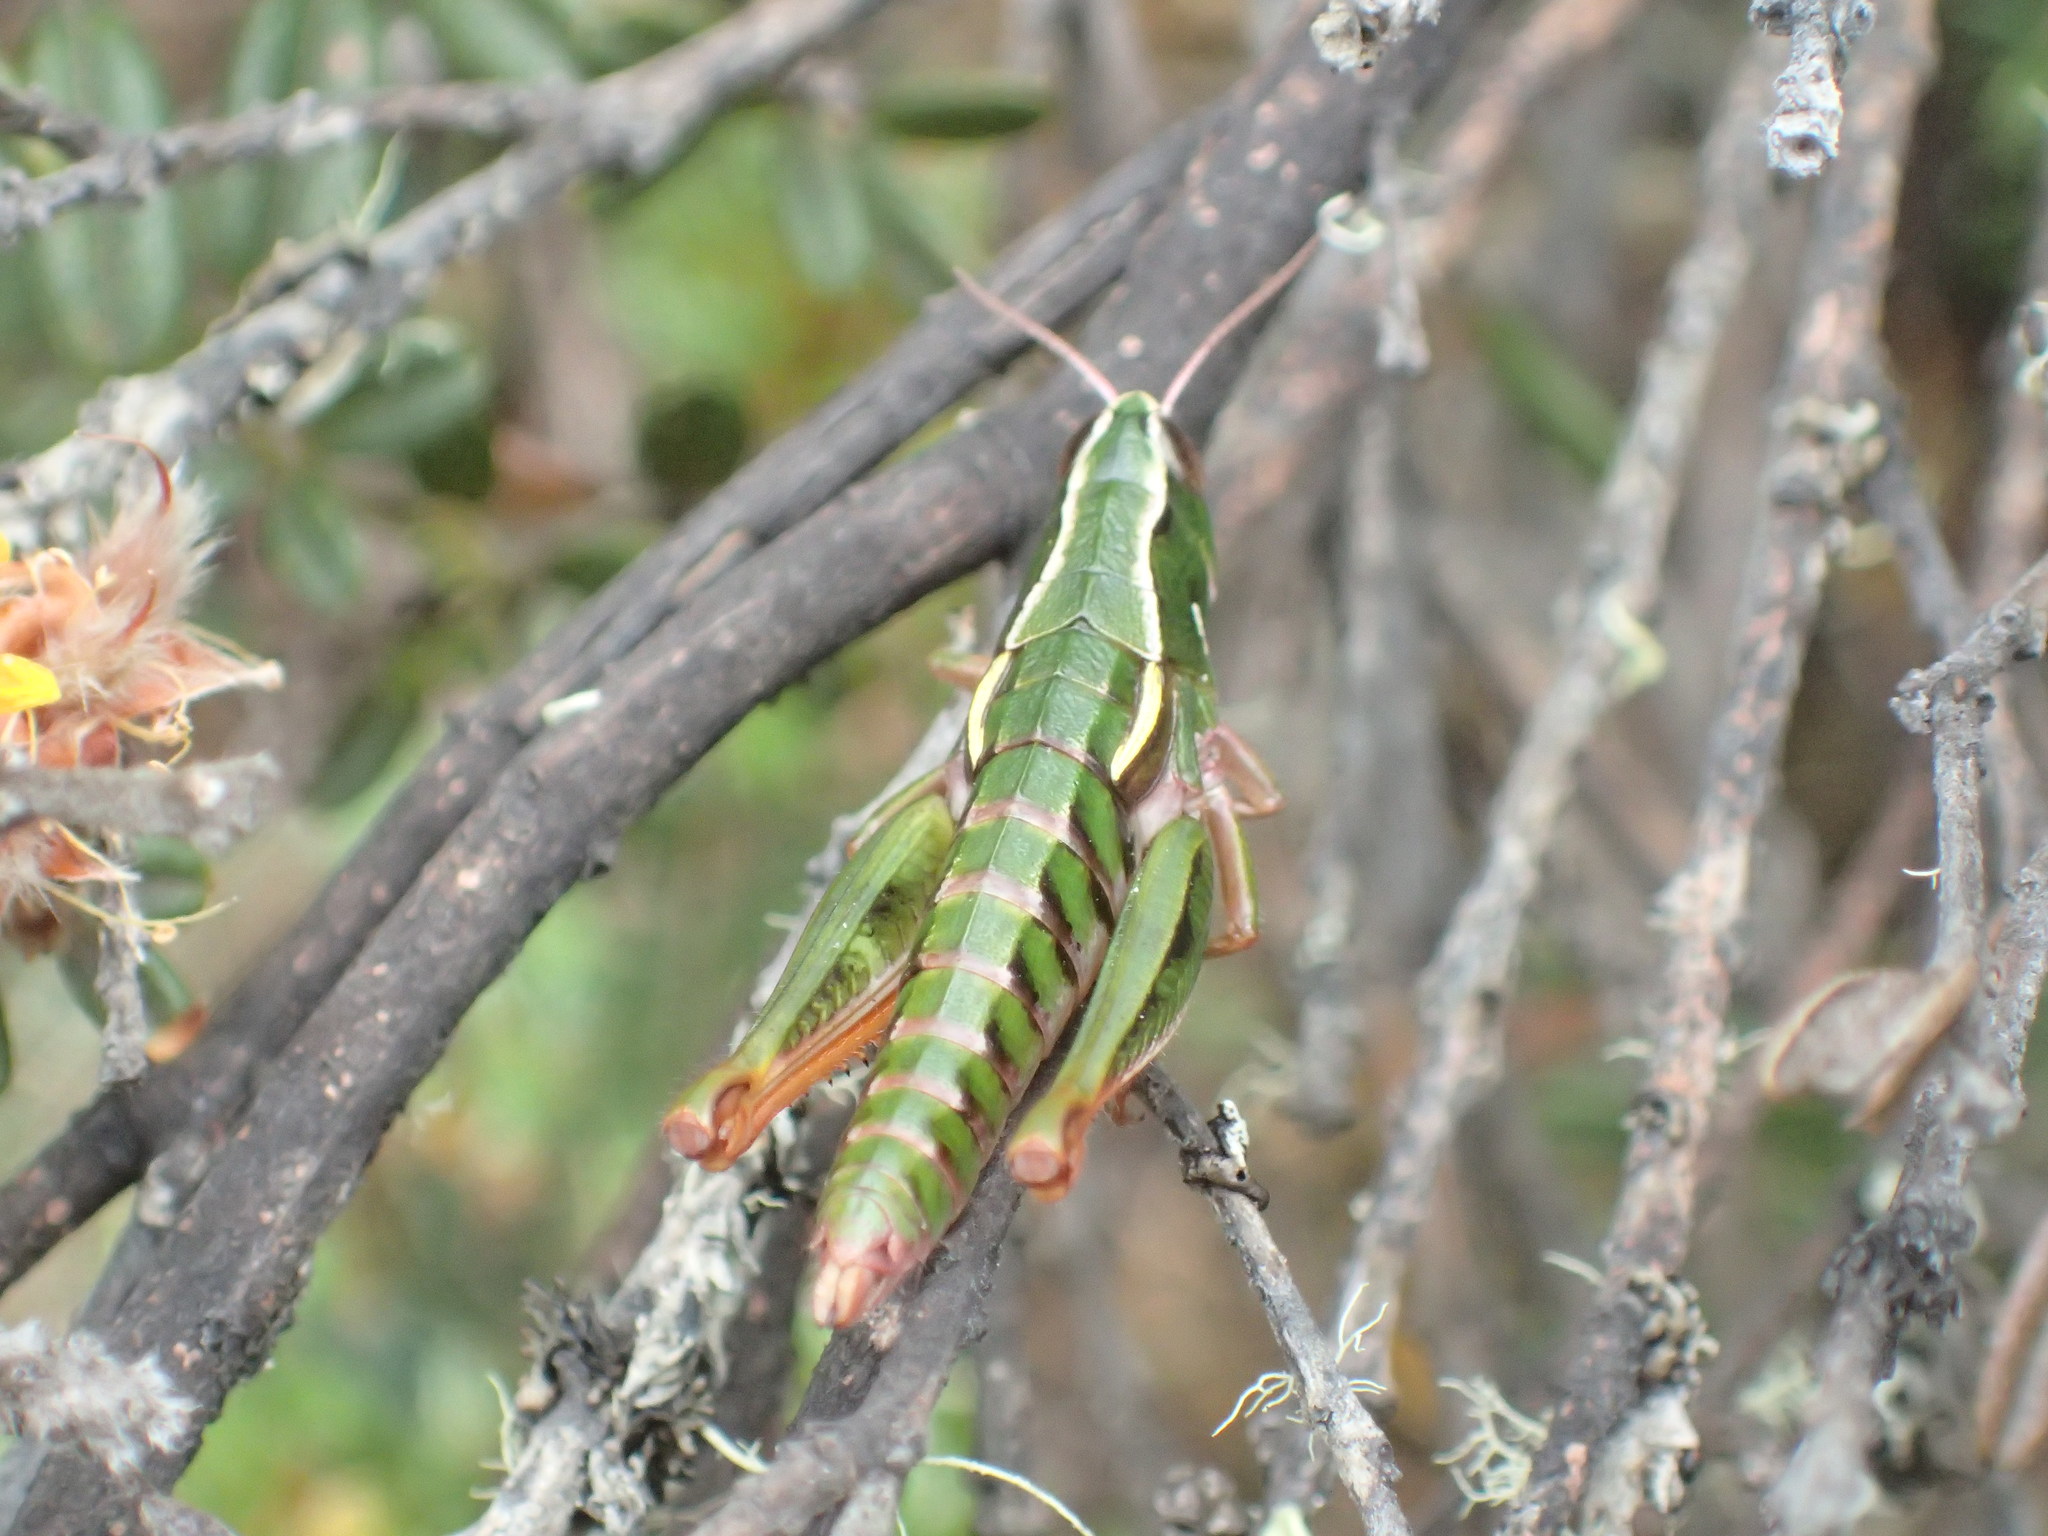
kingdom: Animalia
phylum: Arthropoda
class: Insecta
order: Orthoptera
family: Acrididae
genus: Russalpia
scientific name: Russalpia albertisi
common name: Tassie hopper
